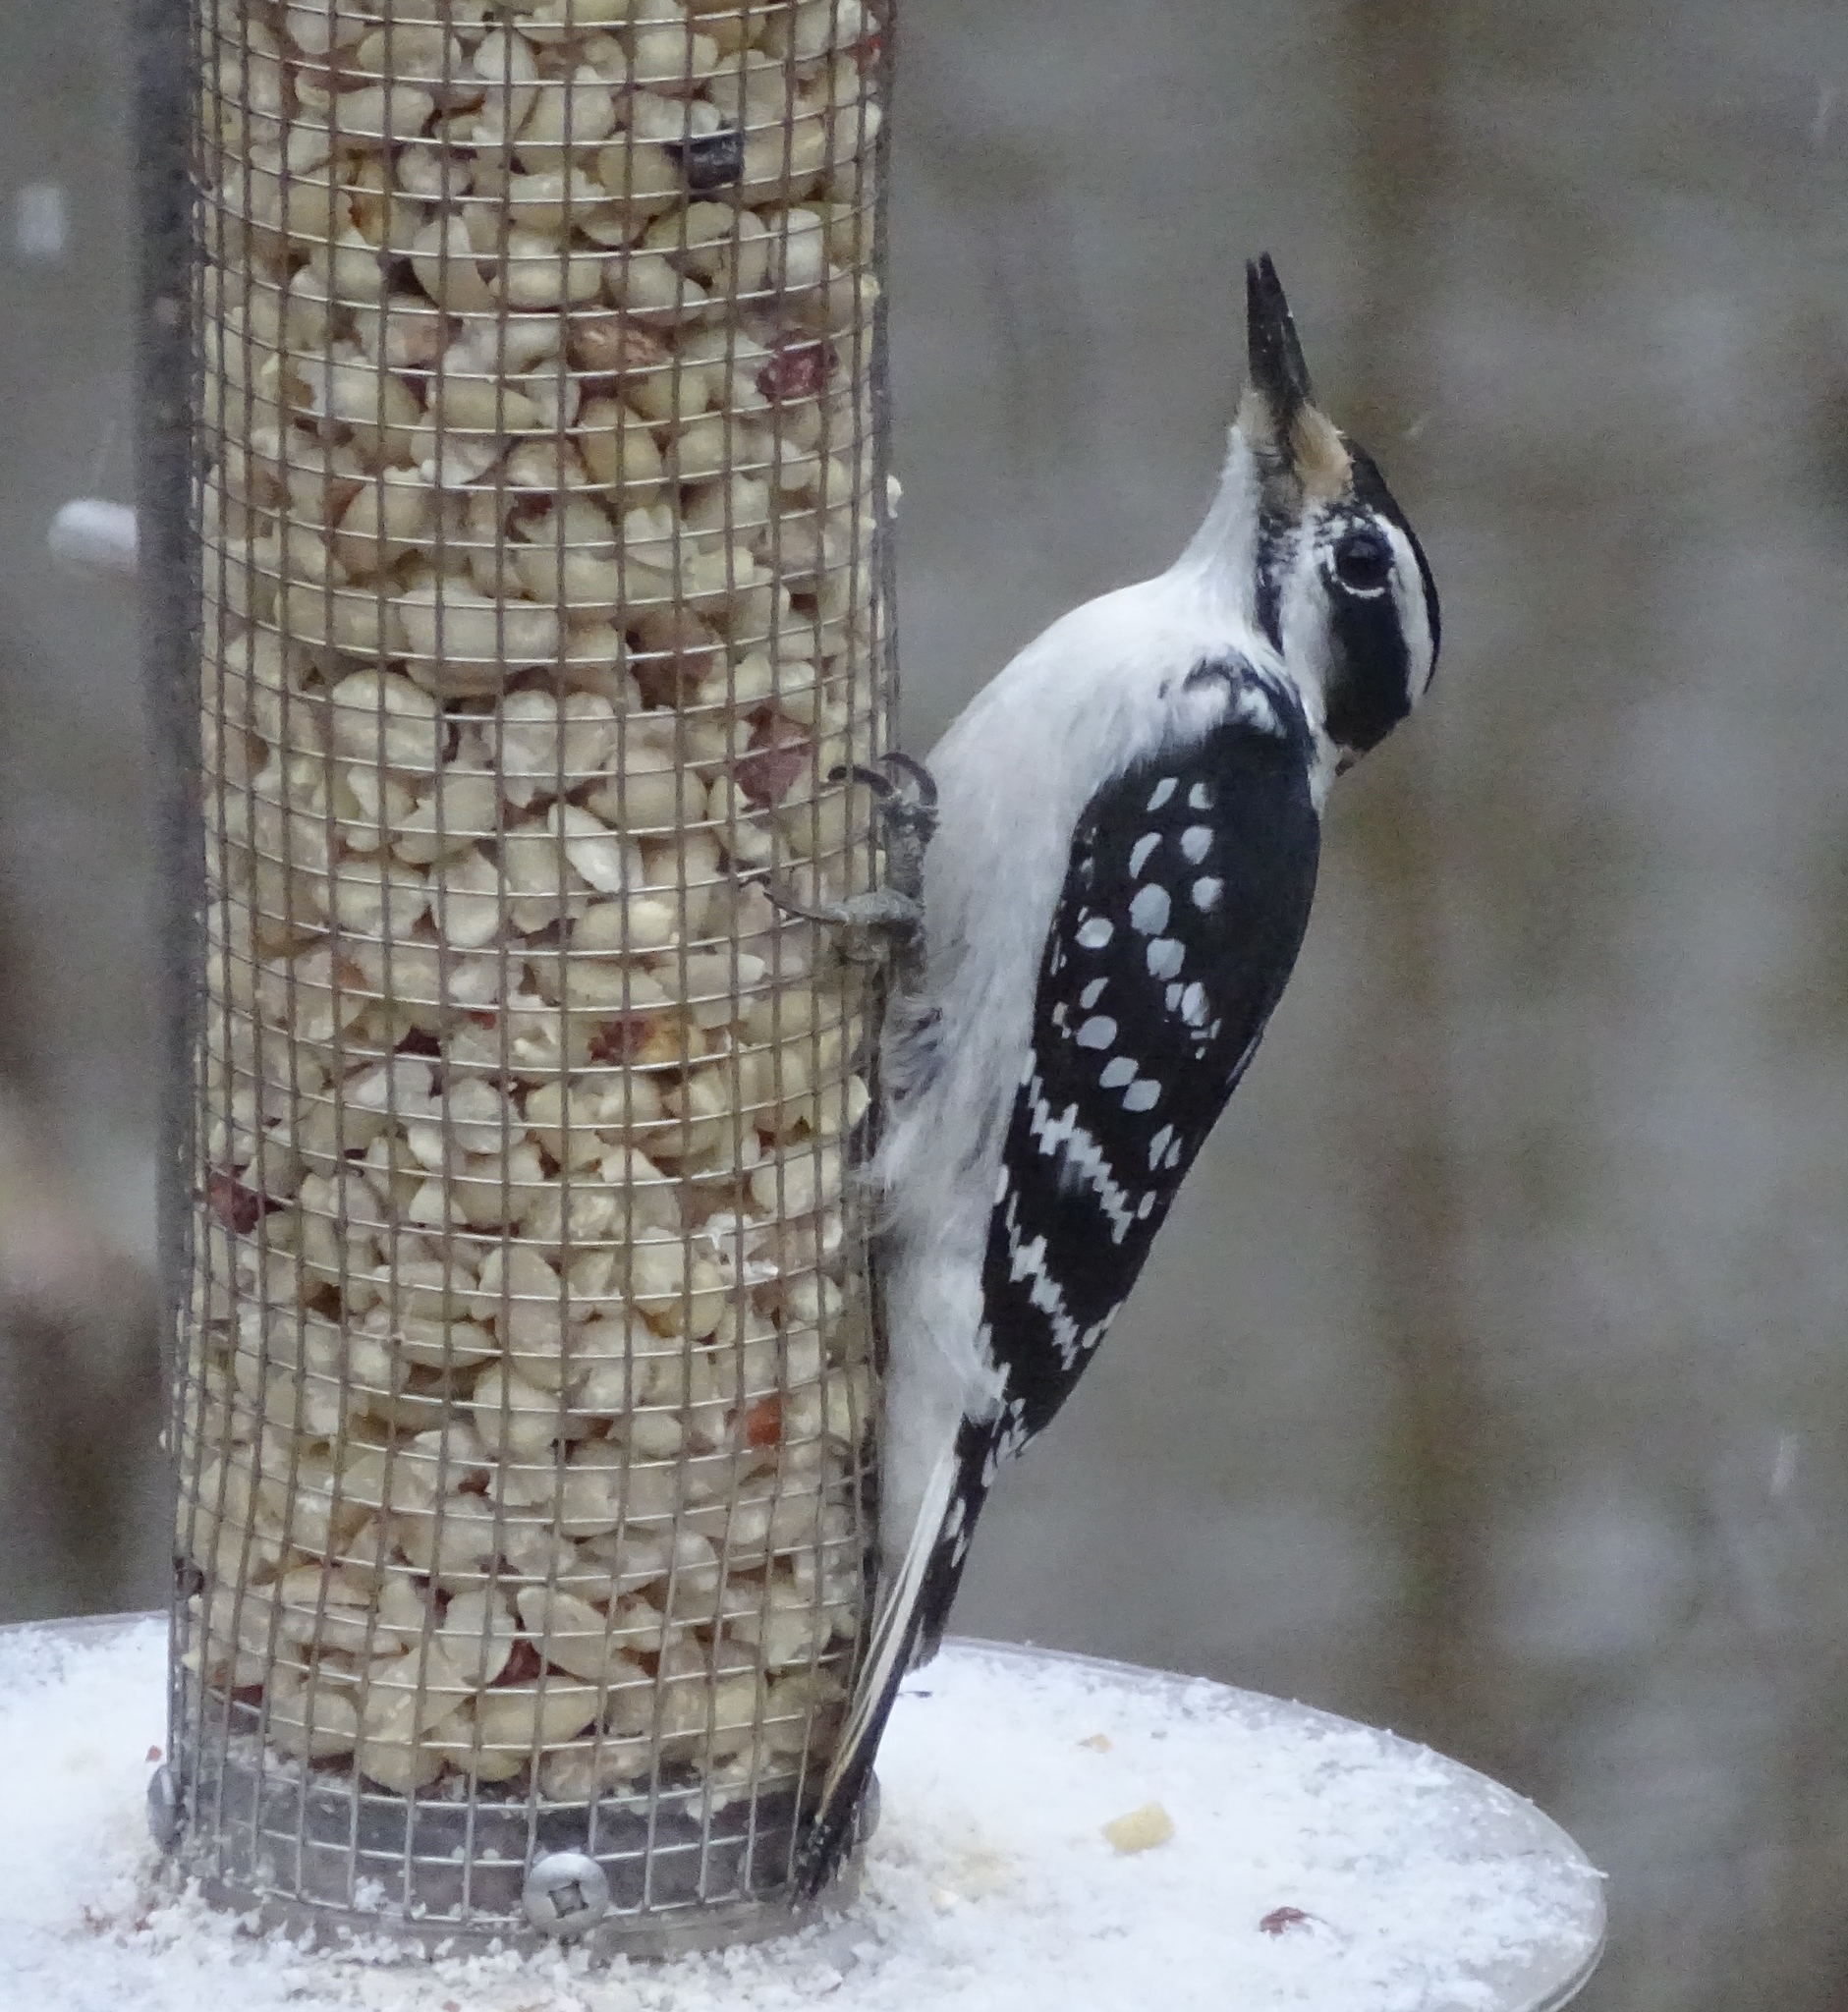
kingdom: Animalia
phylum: Chordata
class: Aves
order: Piciformes
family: Picidae
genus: Leuconotopicus
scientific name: Leuconotopicus villosus
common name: Hairy woodpecker
